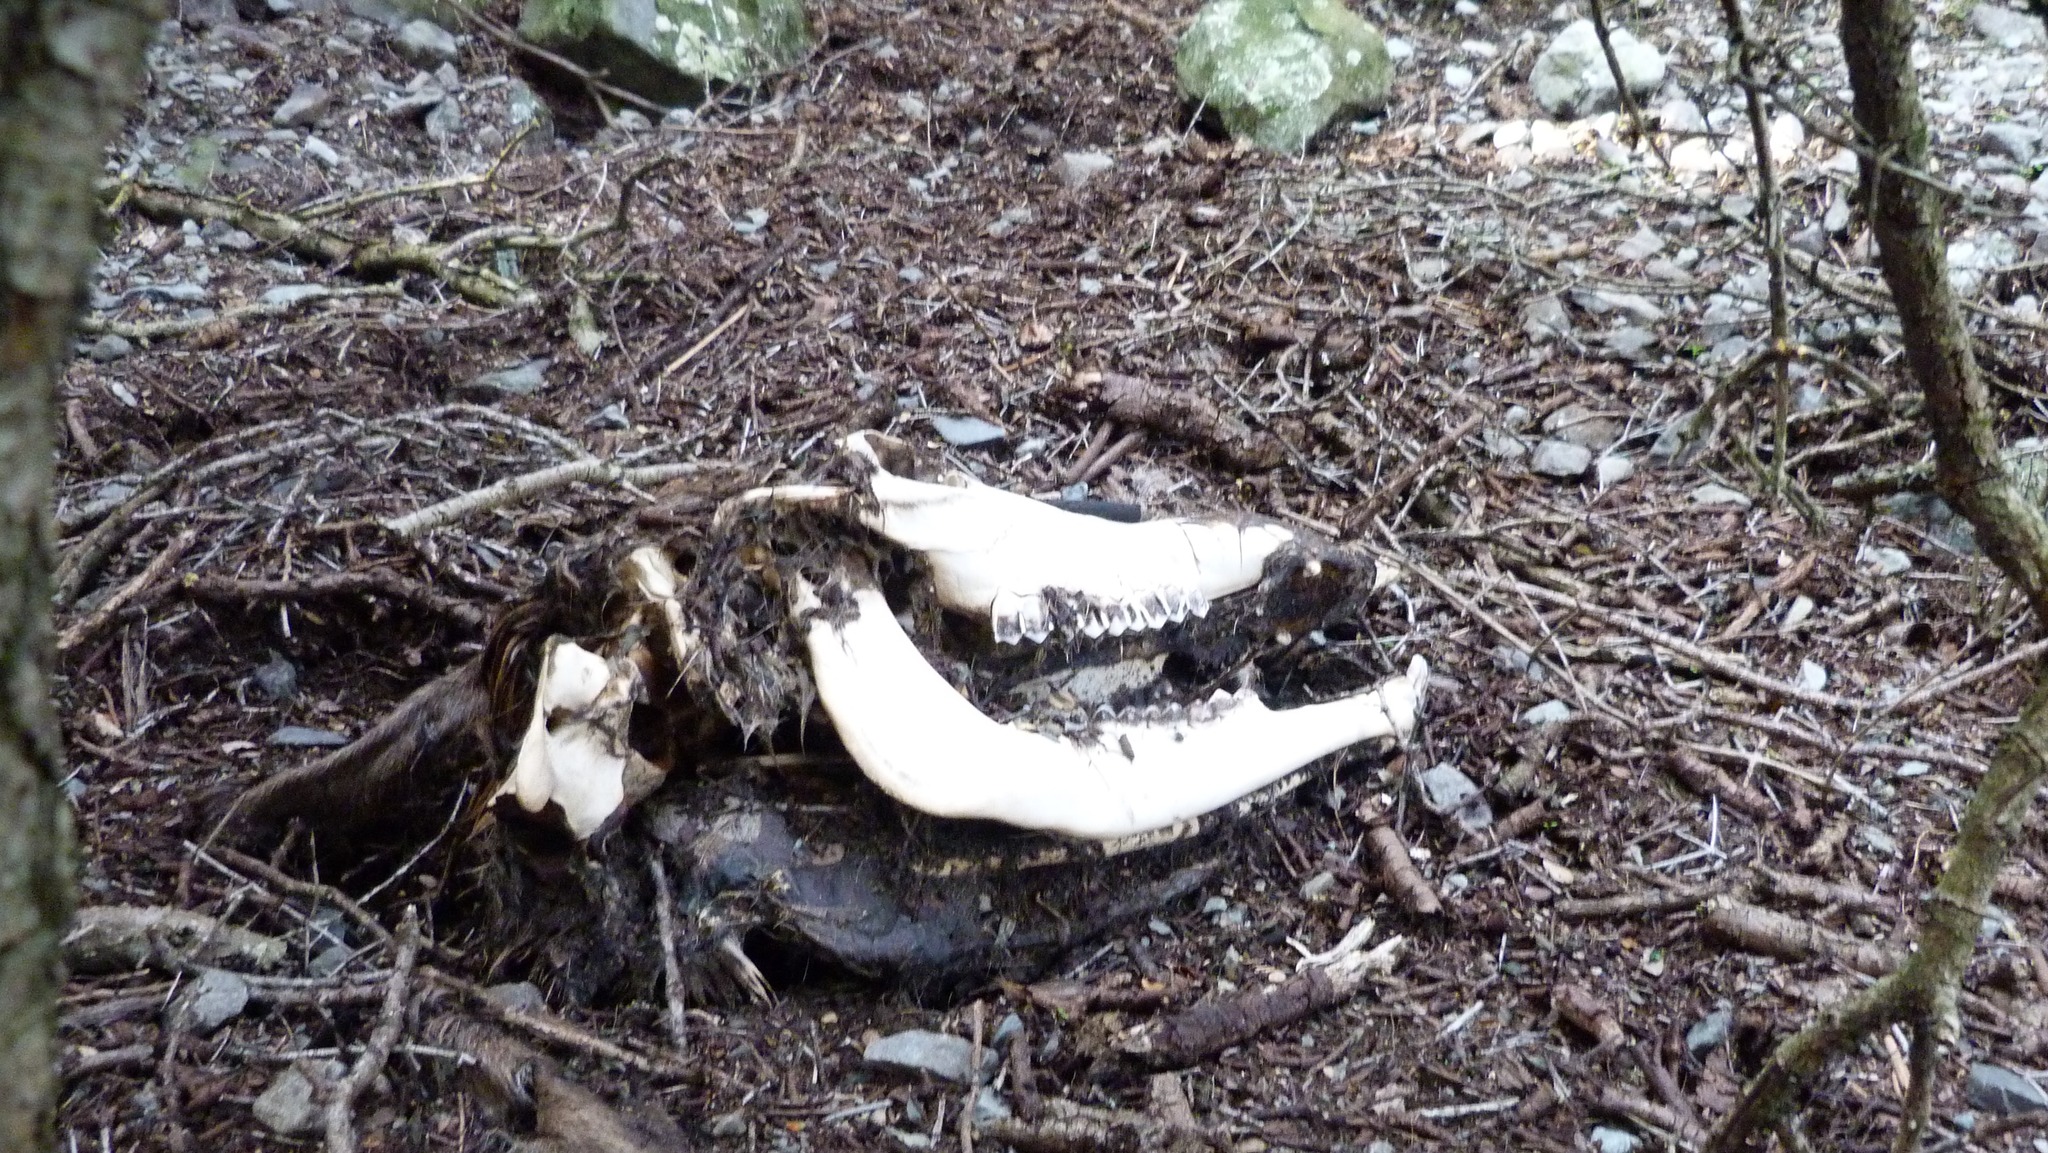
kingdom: Animalia
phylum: Chordata
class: Mammalia
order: Artiodactyla
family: Cervidae
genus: Cervus
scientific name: Cervus elaphus
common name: Red deer
